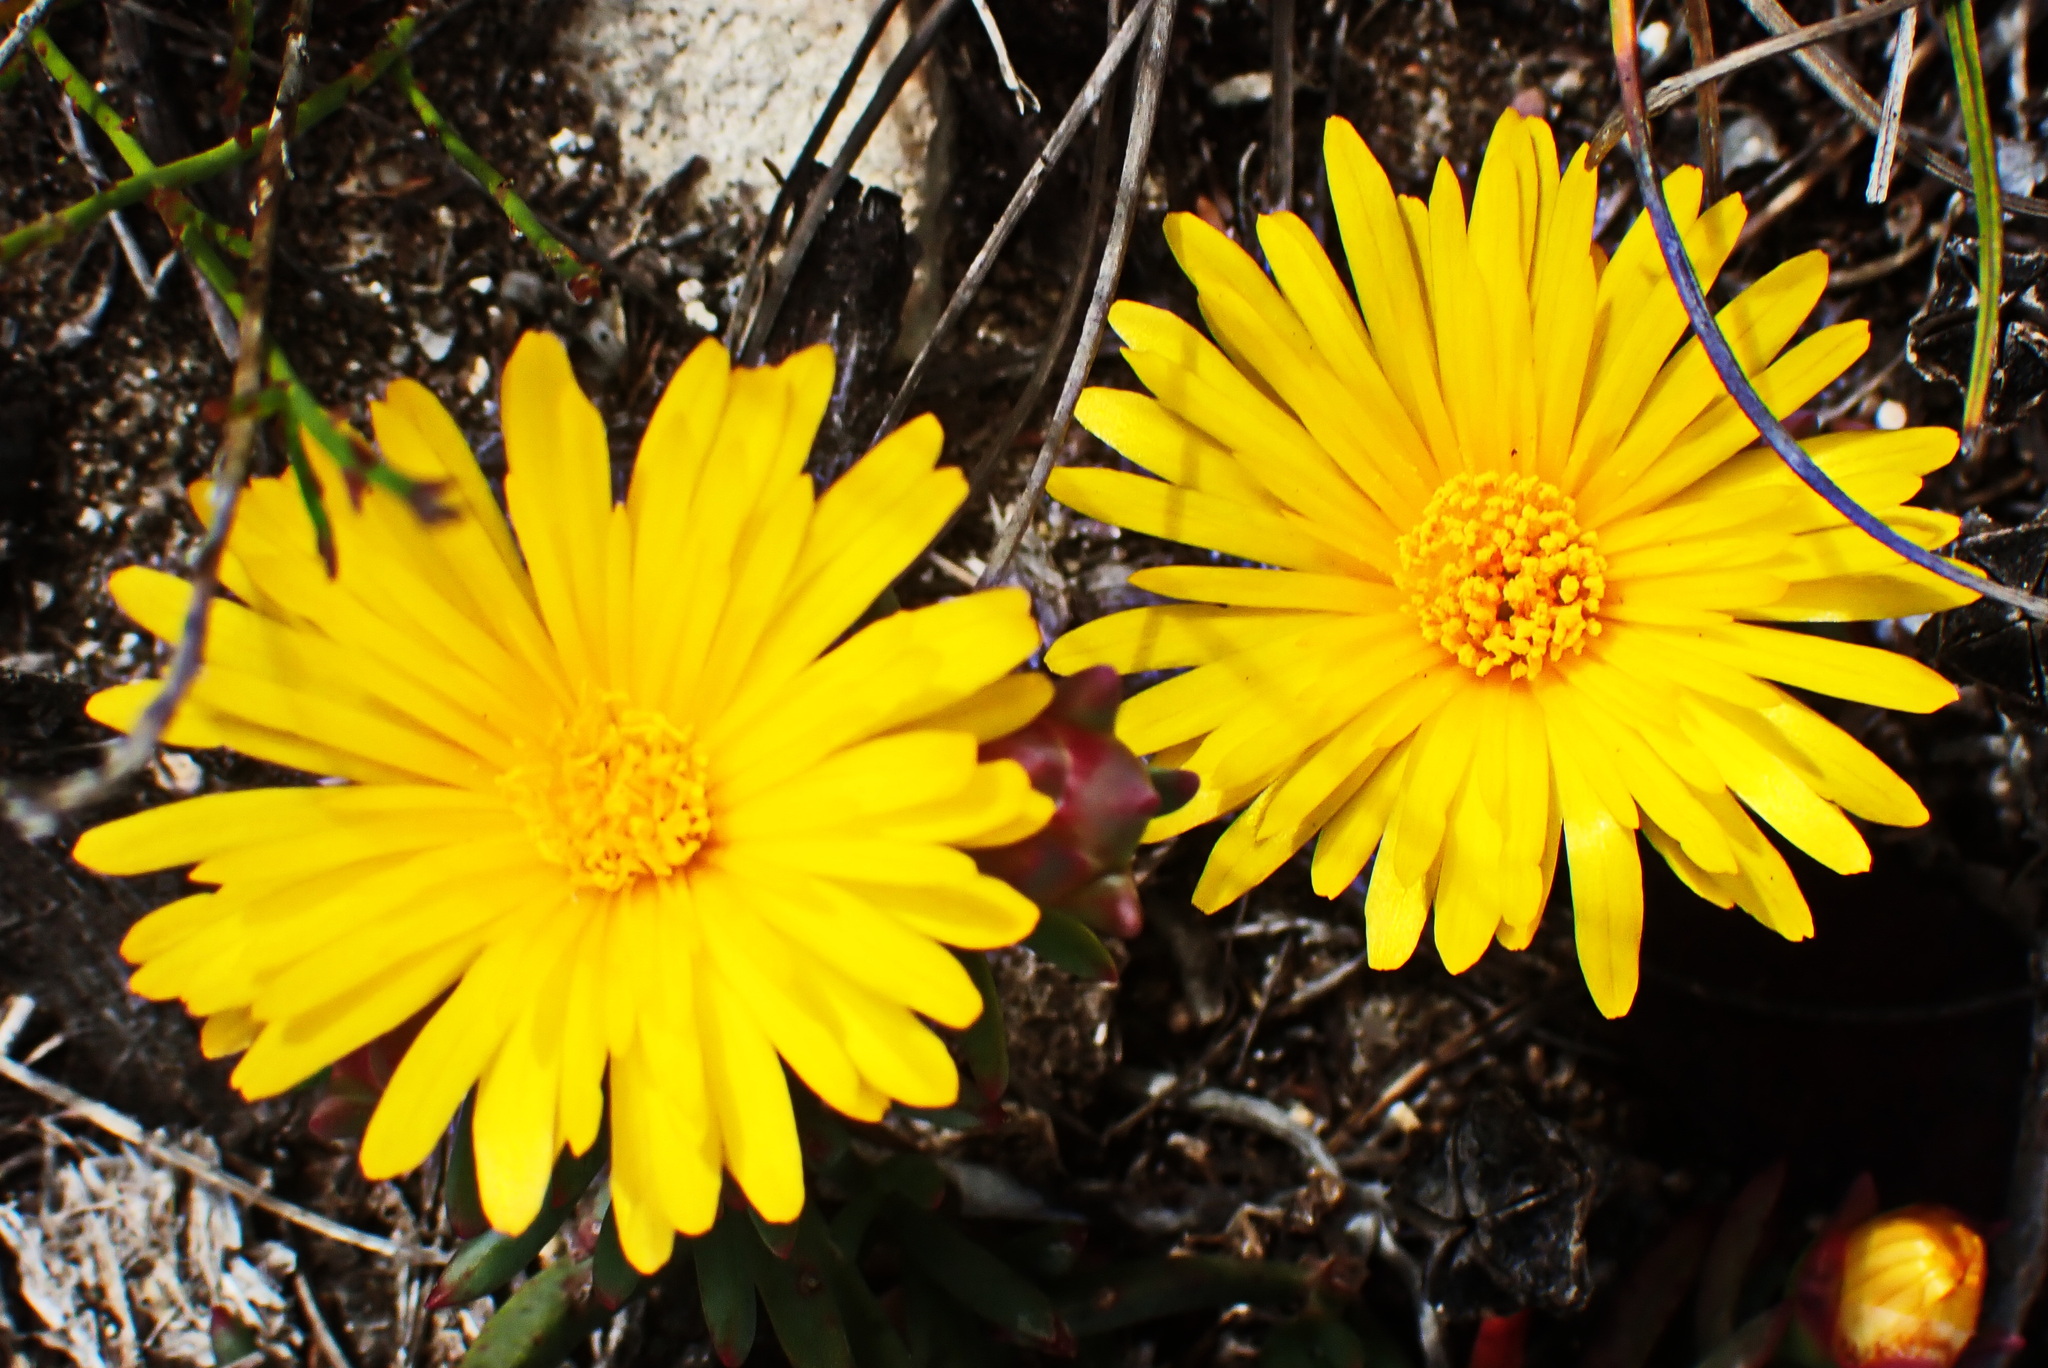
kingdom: Plantae
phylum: Tracheophyta
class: Magnoliopsida
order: Caryophyllales
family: Aizoaceae
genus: Lampranthus
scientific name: Lampranthus fergusoniae
